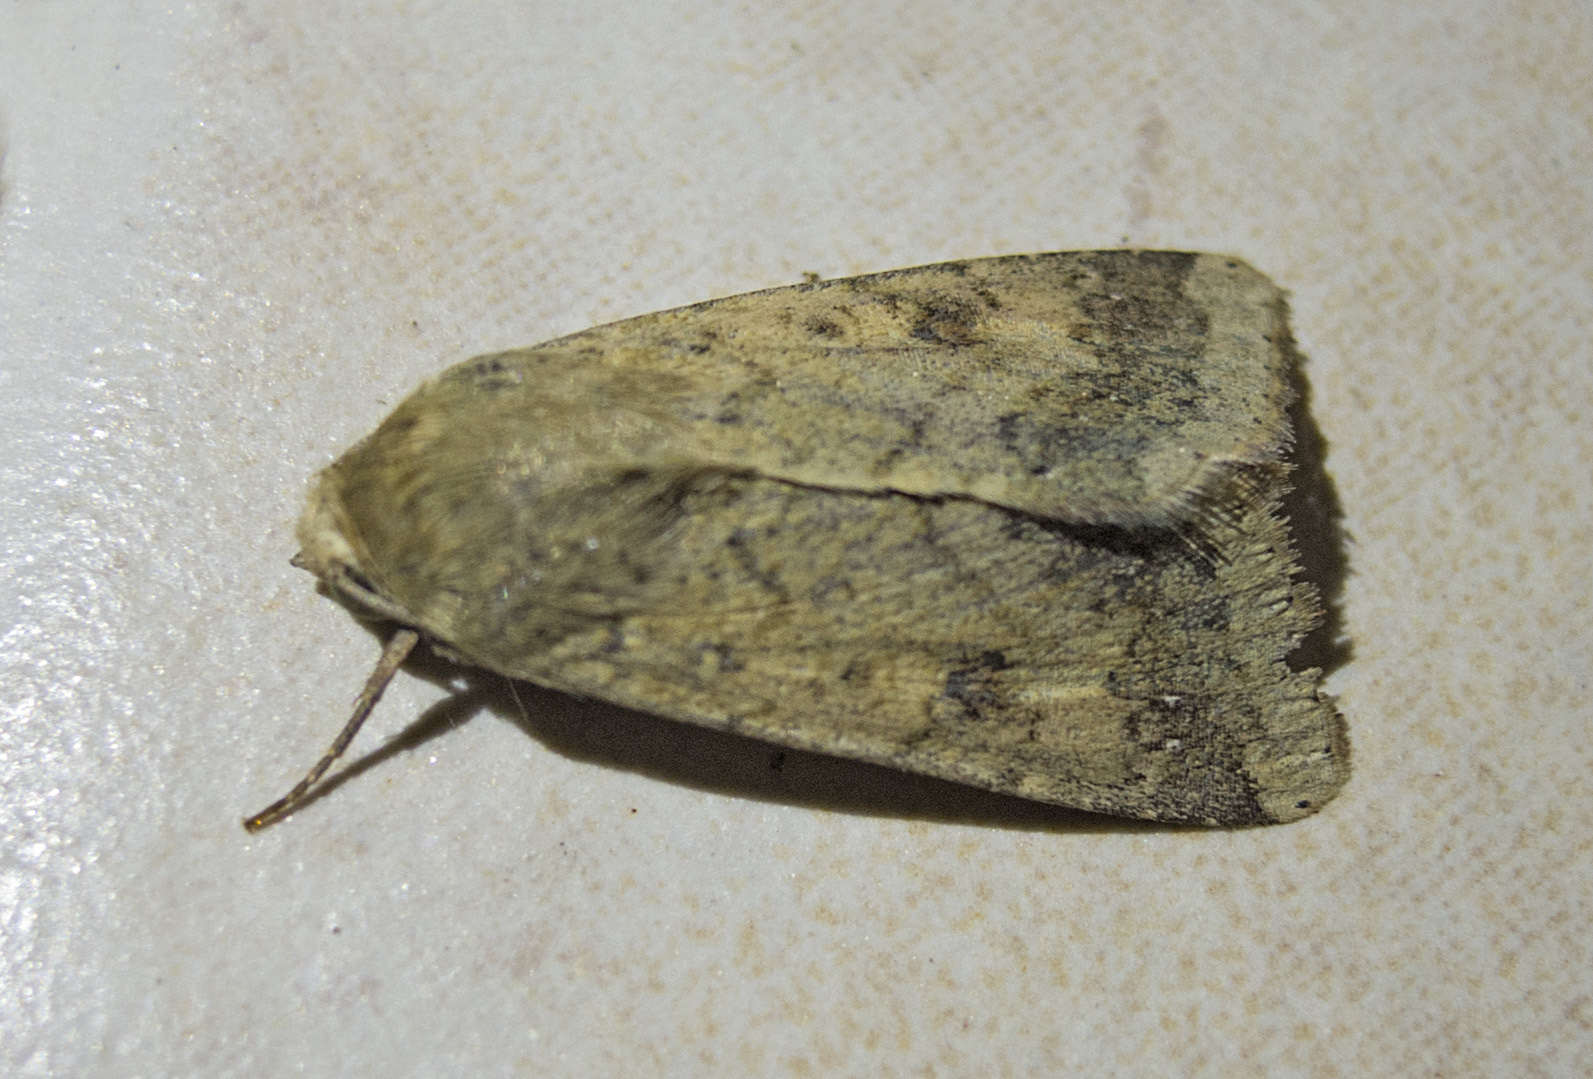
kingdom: Animalia
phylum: Arthropoda
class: Insecta
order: Lepidoptera
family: Noctuidae
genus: Helicoverpa
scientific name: Helicoverpa armigera
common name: Cotton bollworm
